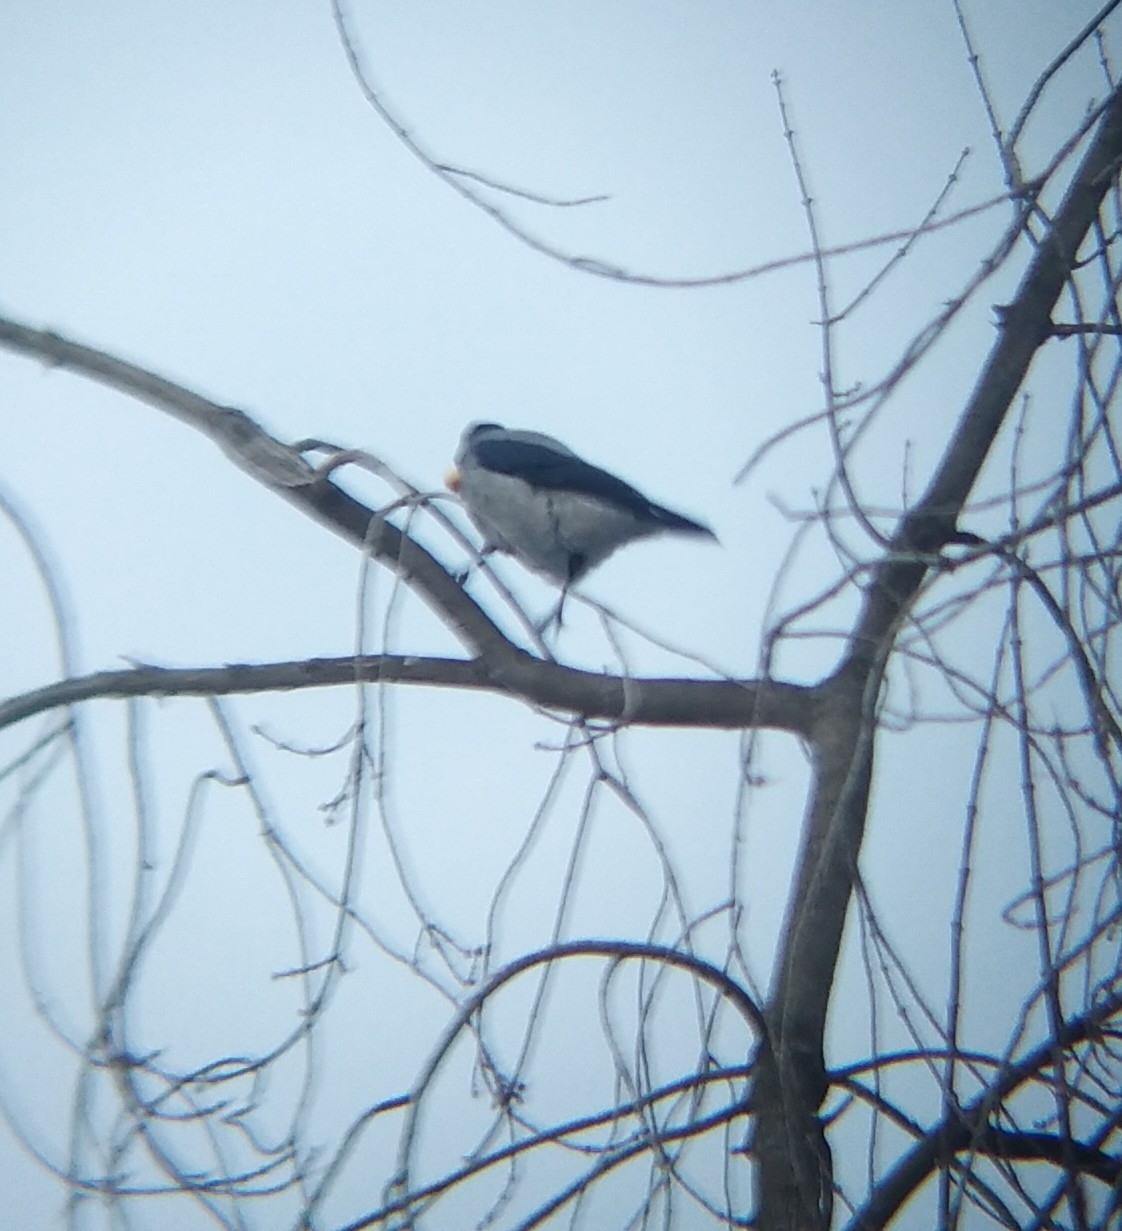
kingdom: Animalia
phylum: Chordata
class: Aves
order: Passeriformes
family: Corvidae
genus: Corvus
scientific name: Corvus cornix
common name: Hooded crow
